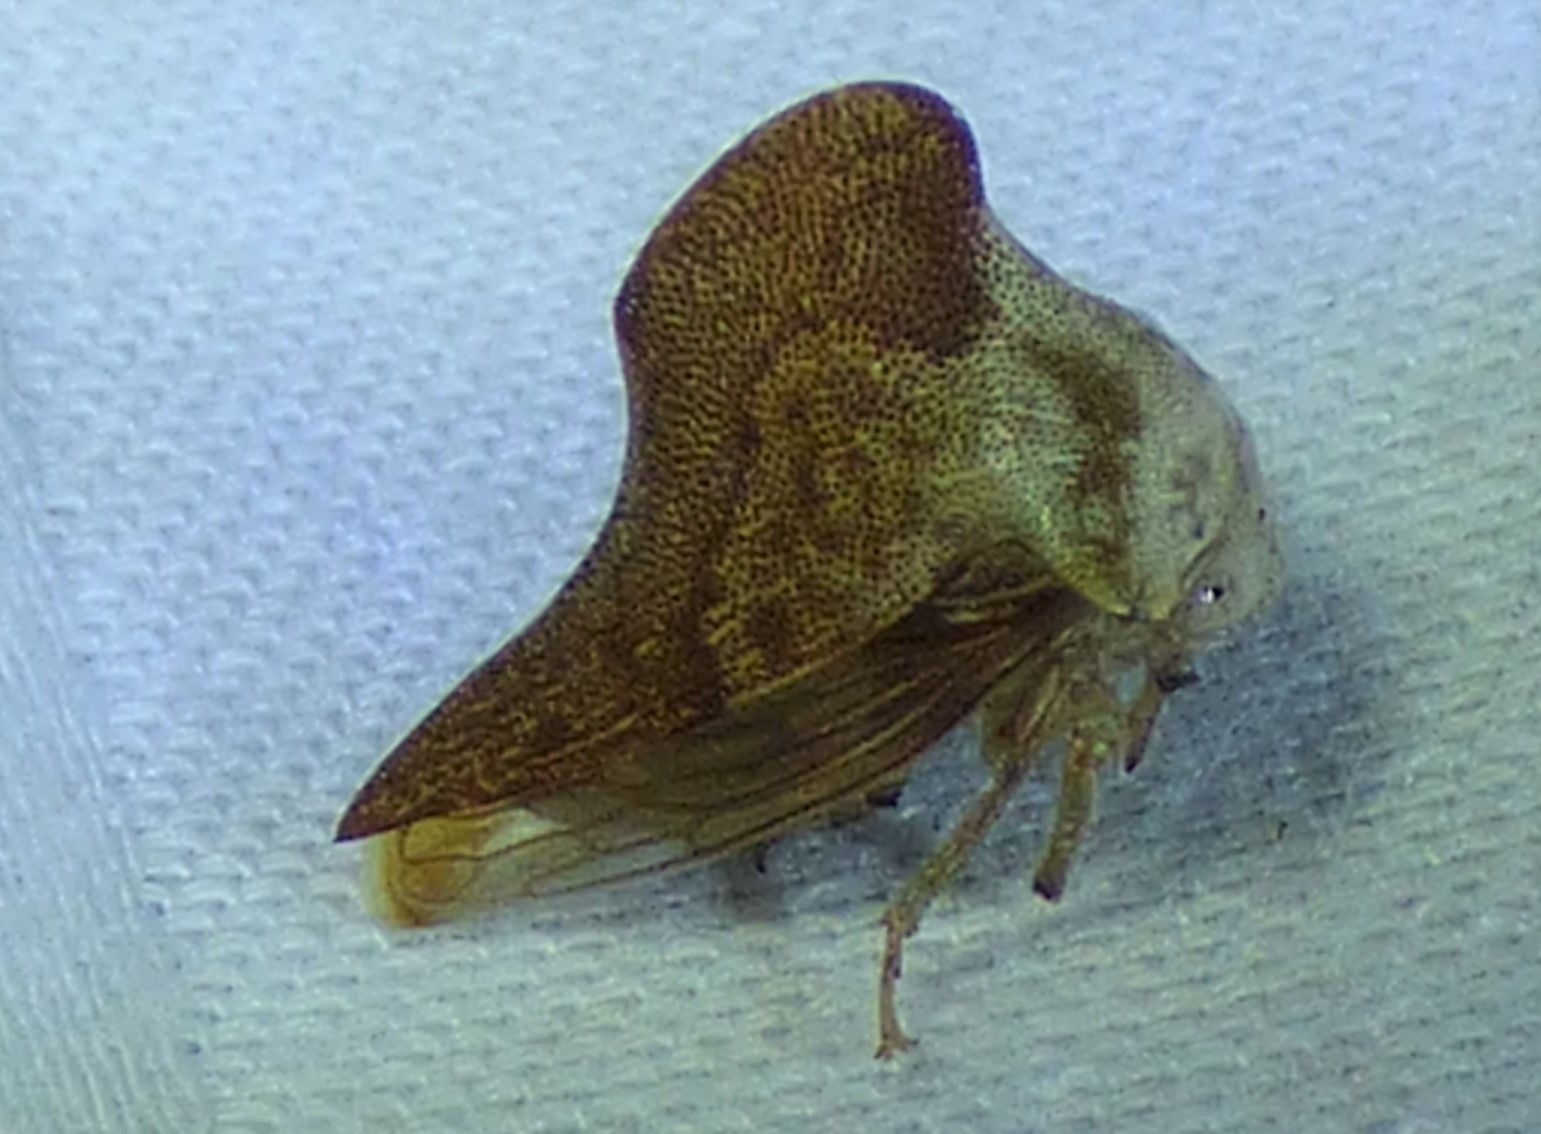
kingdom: Animalia
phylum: Arthropoda
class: Insecta
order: Hemiptera
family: Membracidae
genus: Telamona
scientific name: Telamona collina
